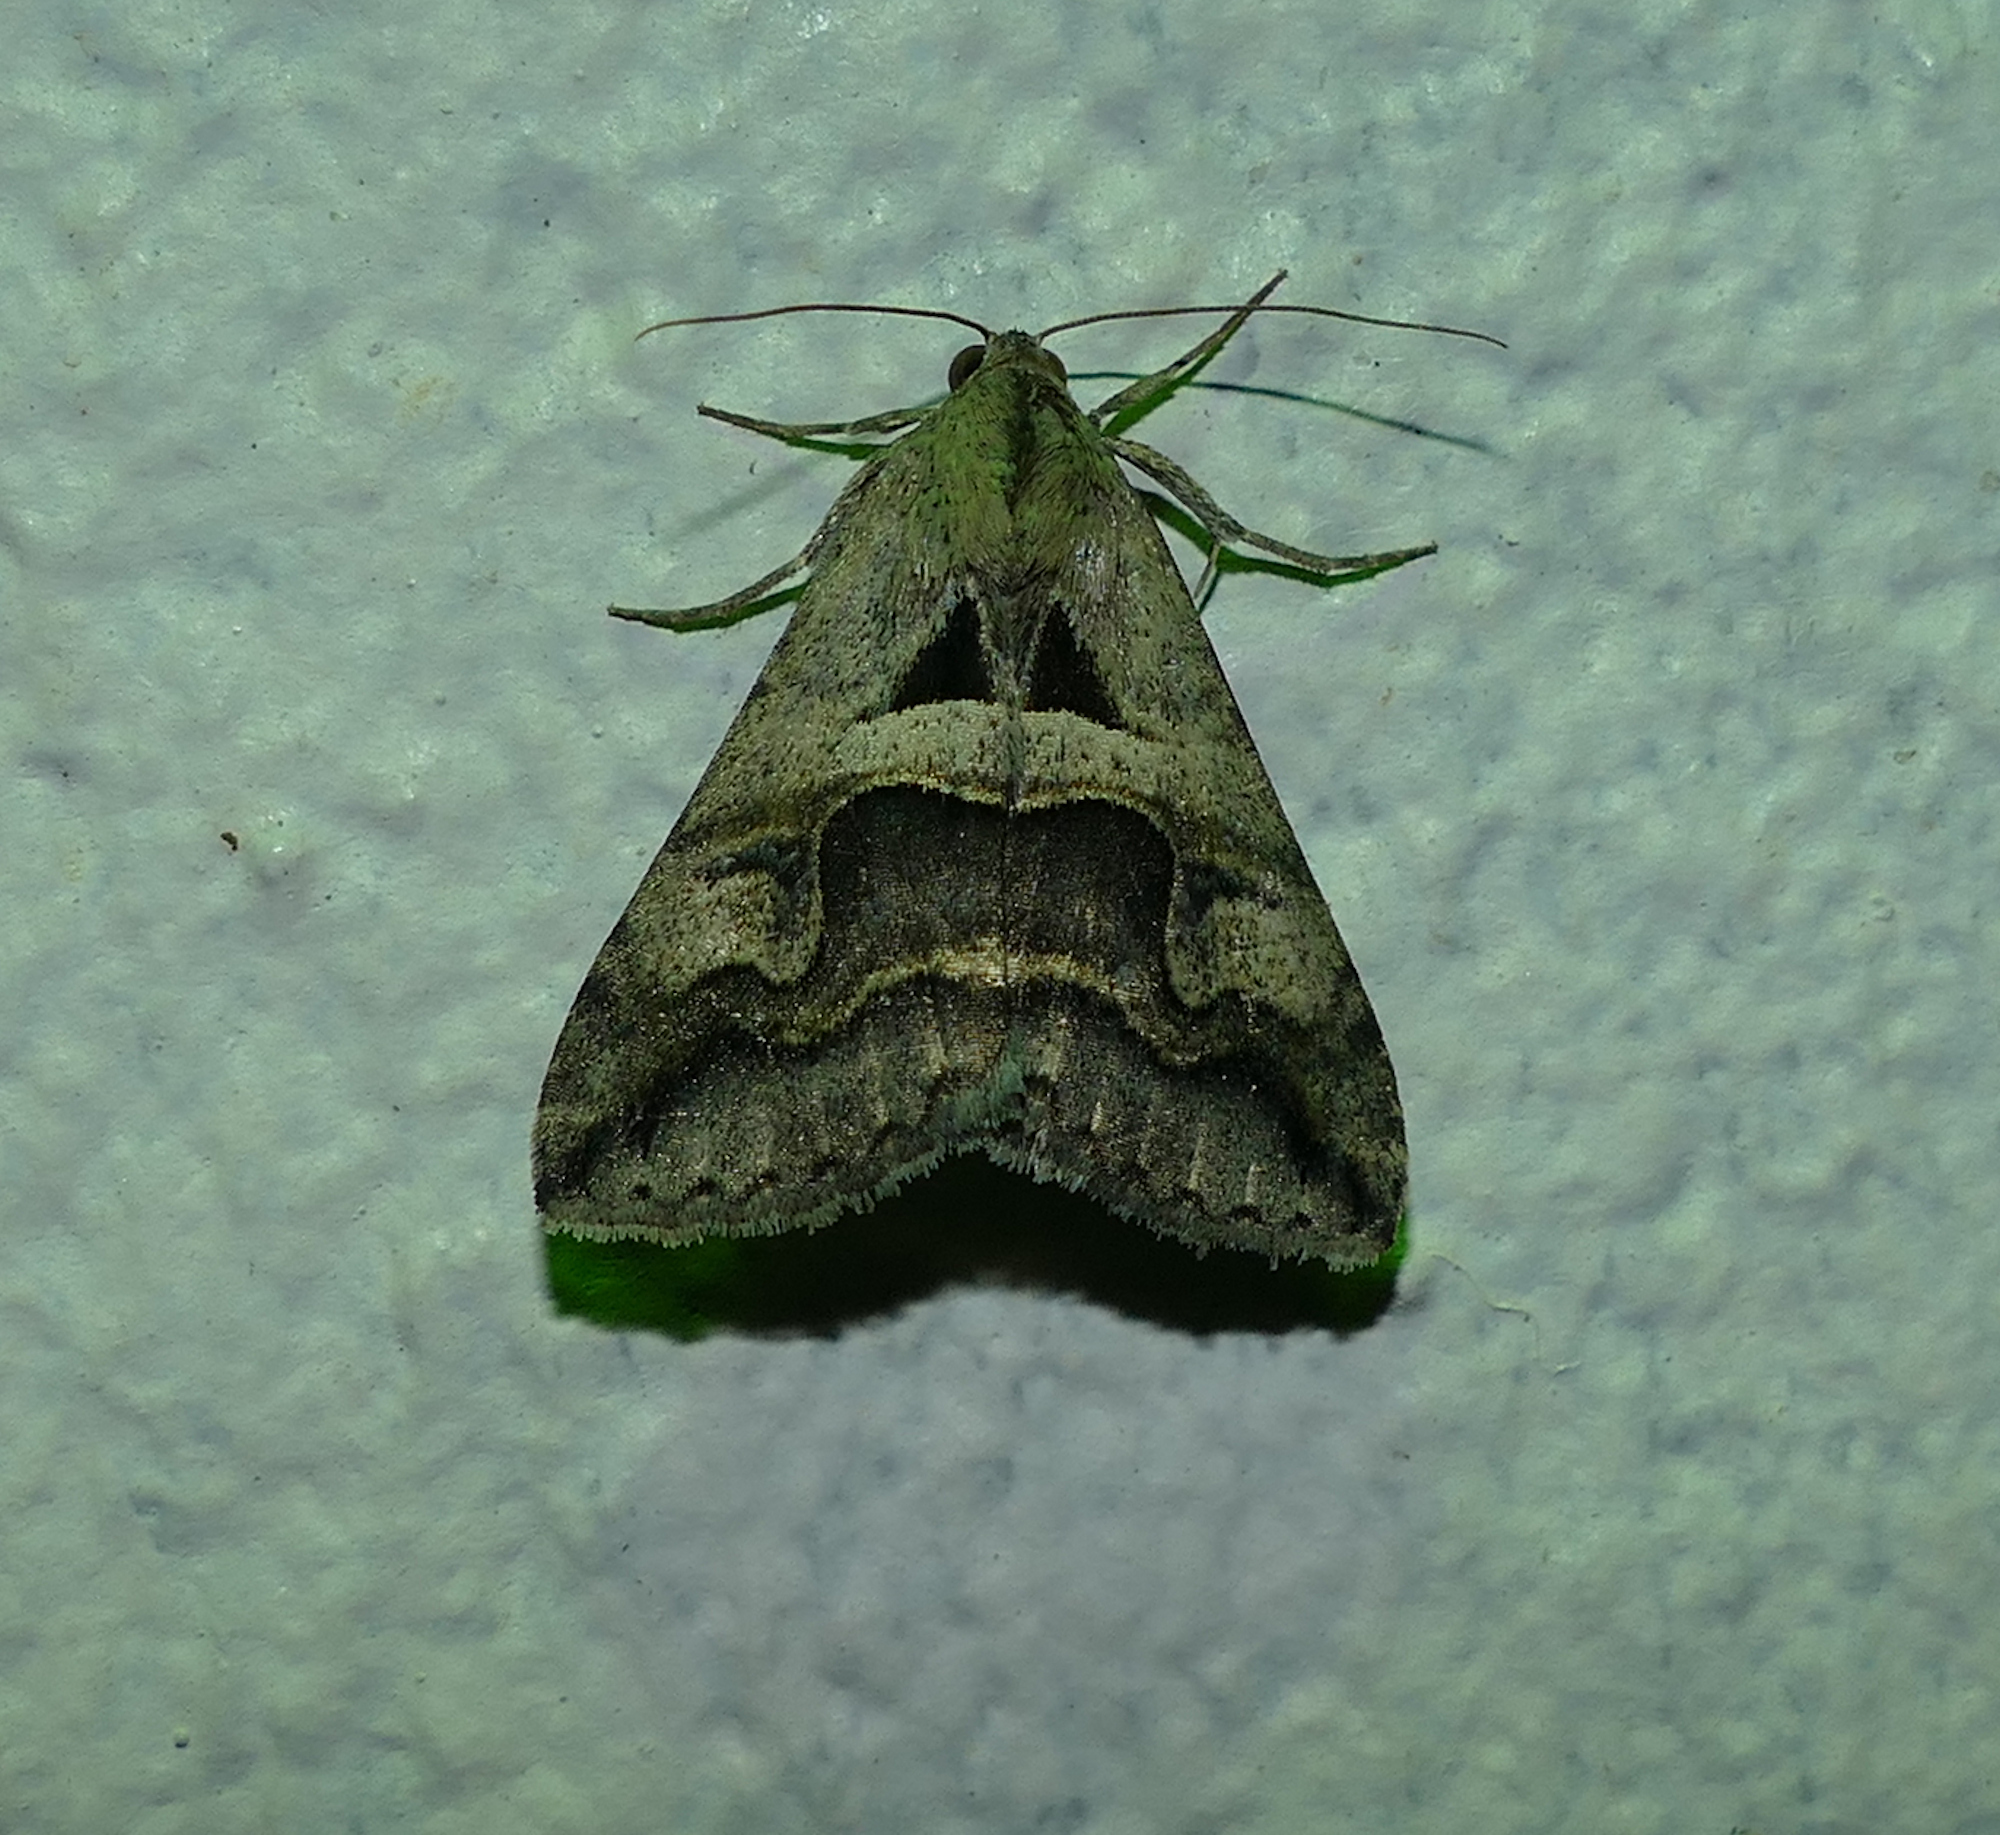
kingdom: Animalia
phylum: Arthropoda
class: Insecta
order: Lepidoptera
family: Erebidae
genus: Melipotis
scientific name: Melipotis cellaris
